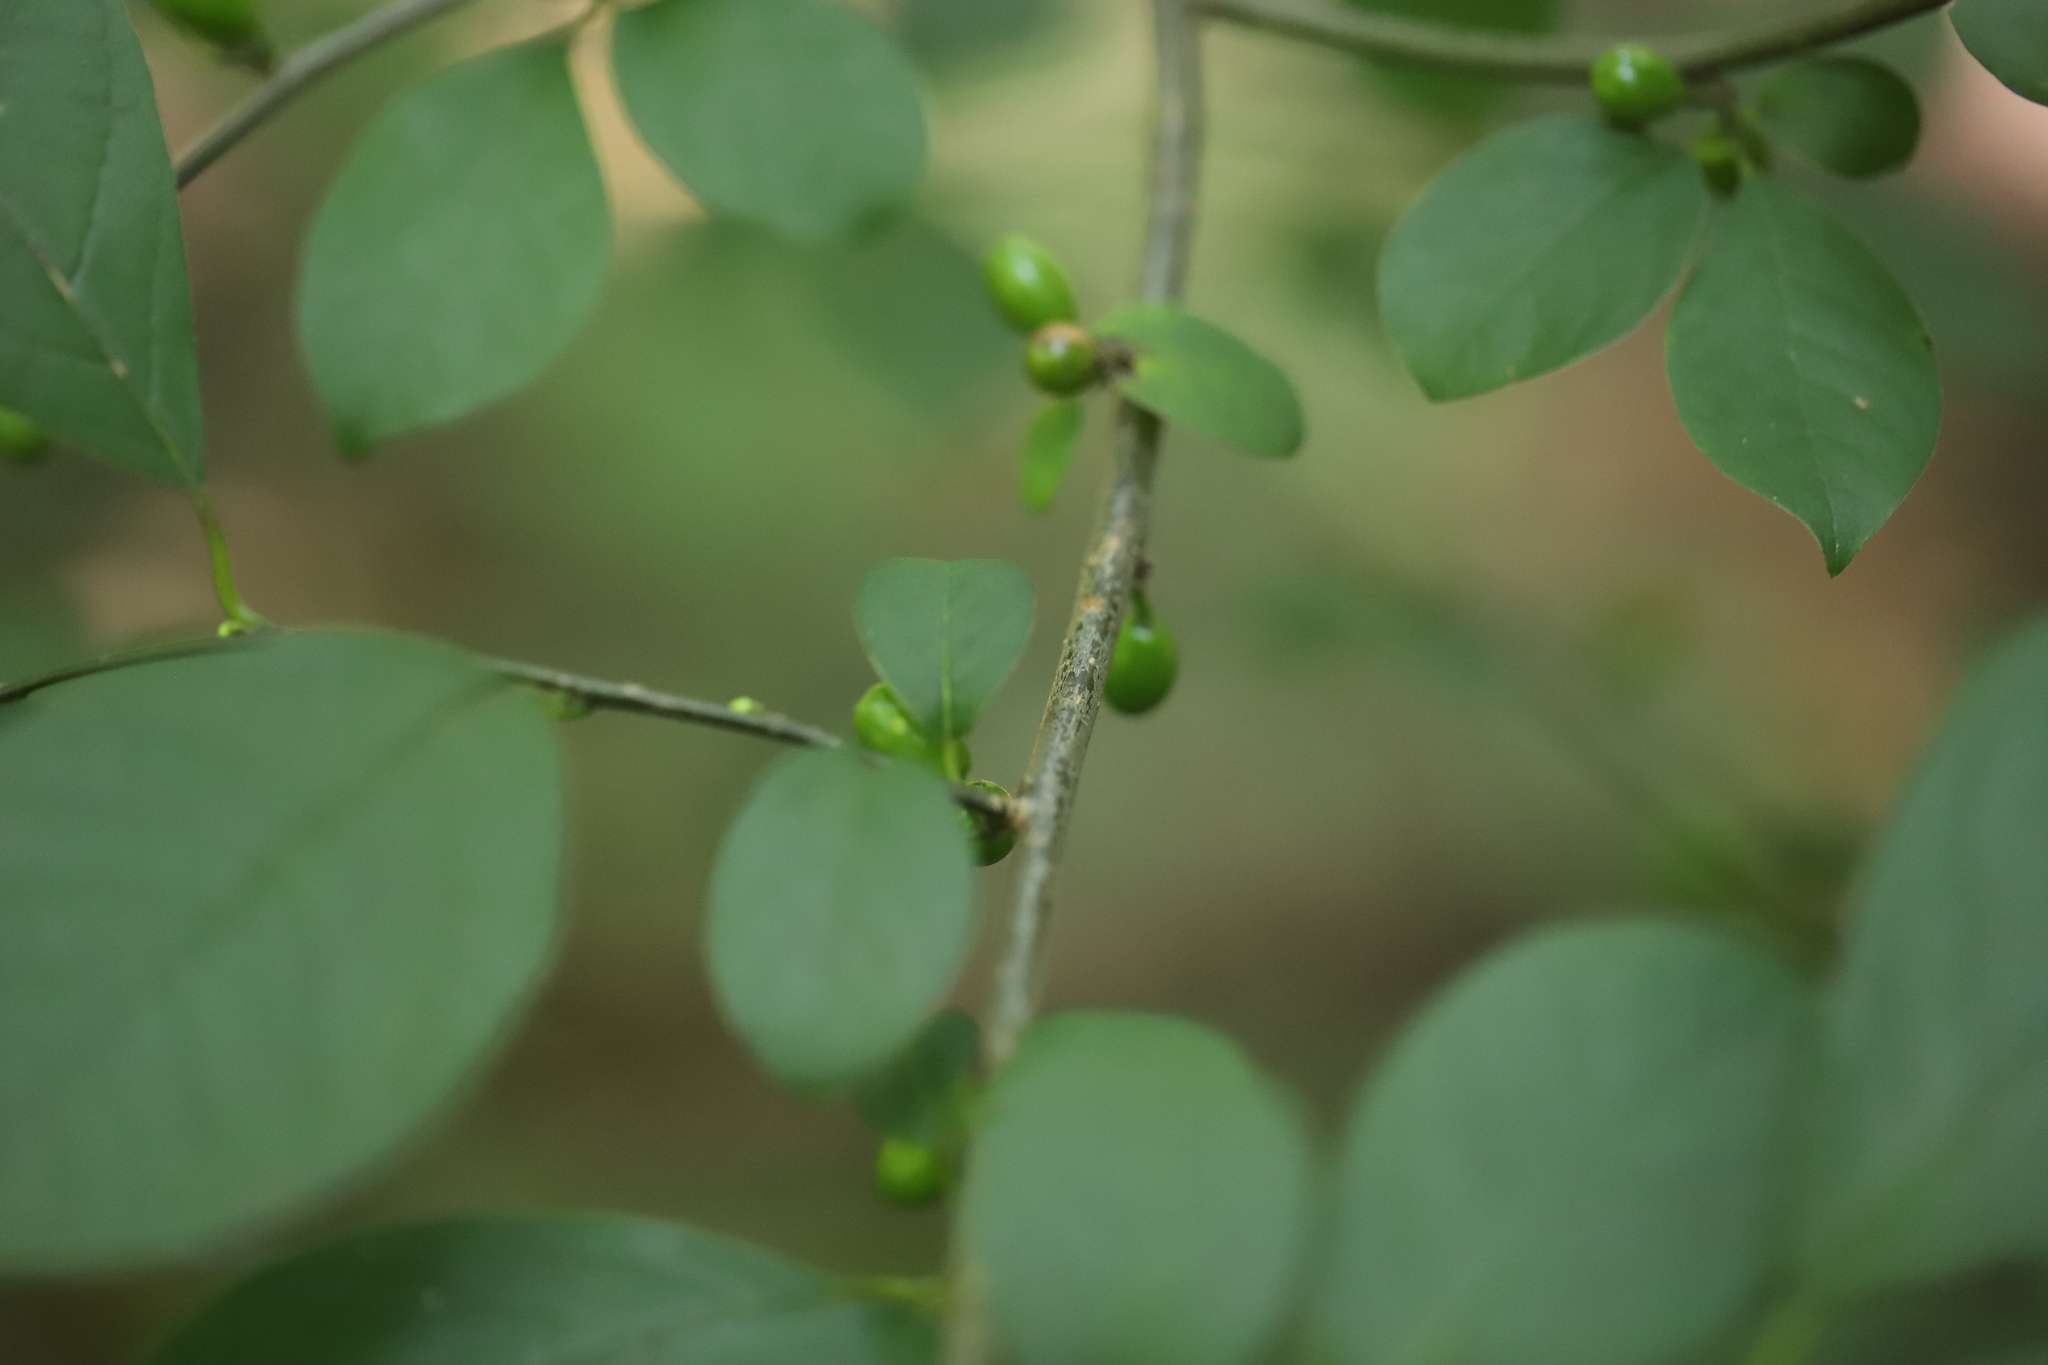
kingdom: Plantae
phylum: Tracheophyta
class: Magnoliopsida
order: Laurales
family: Lauraceae
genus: Lindera
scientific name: Lindera benzoin
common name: Spicebush
